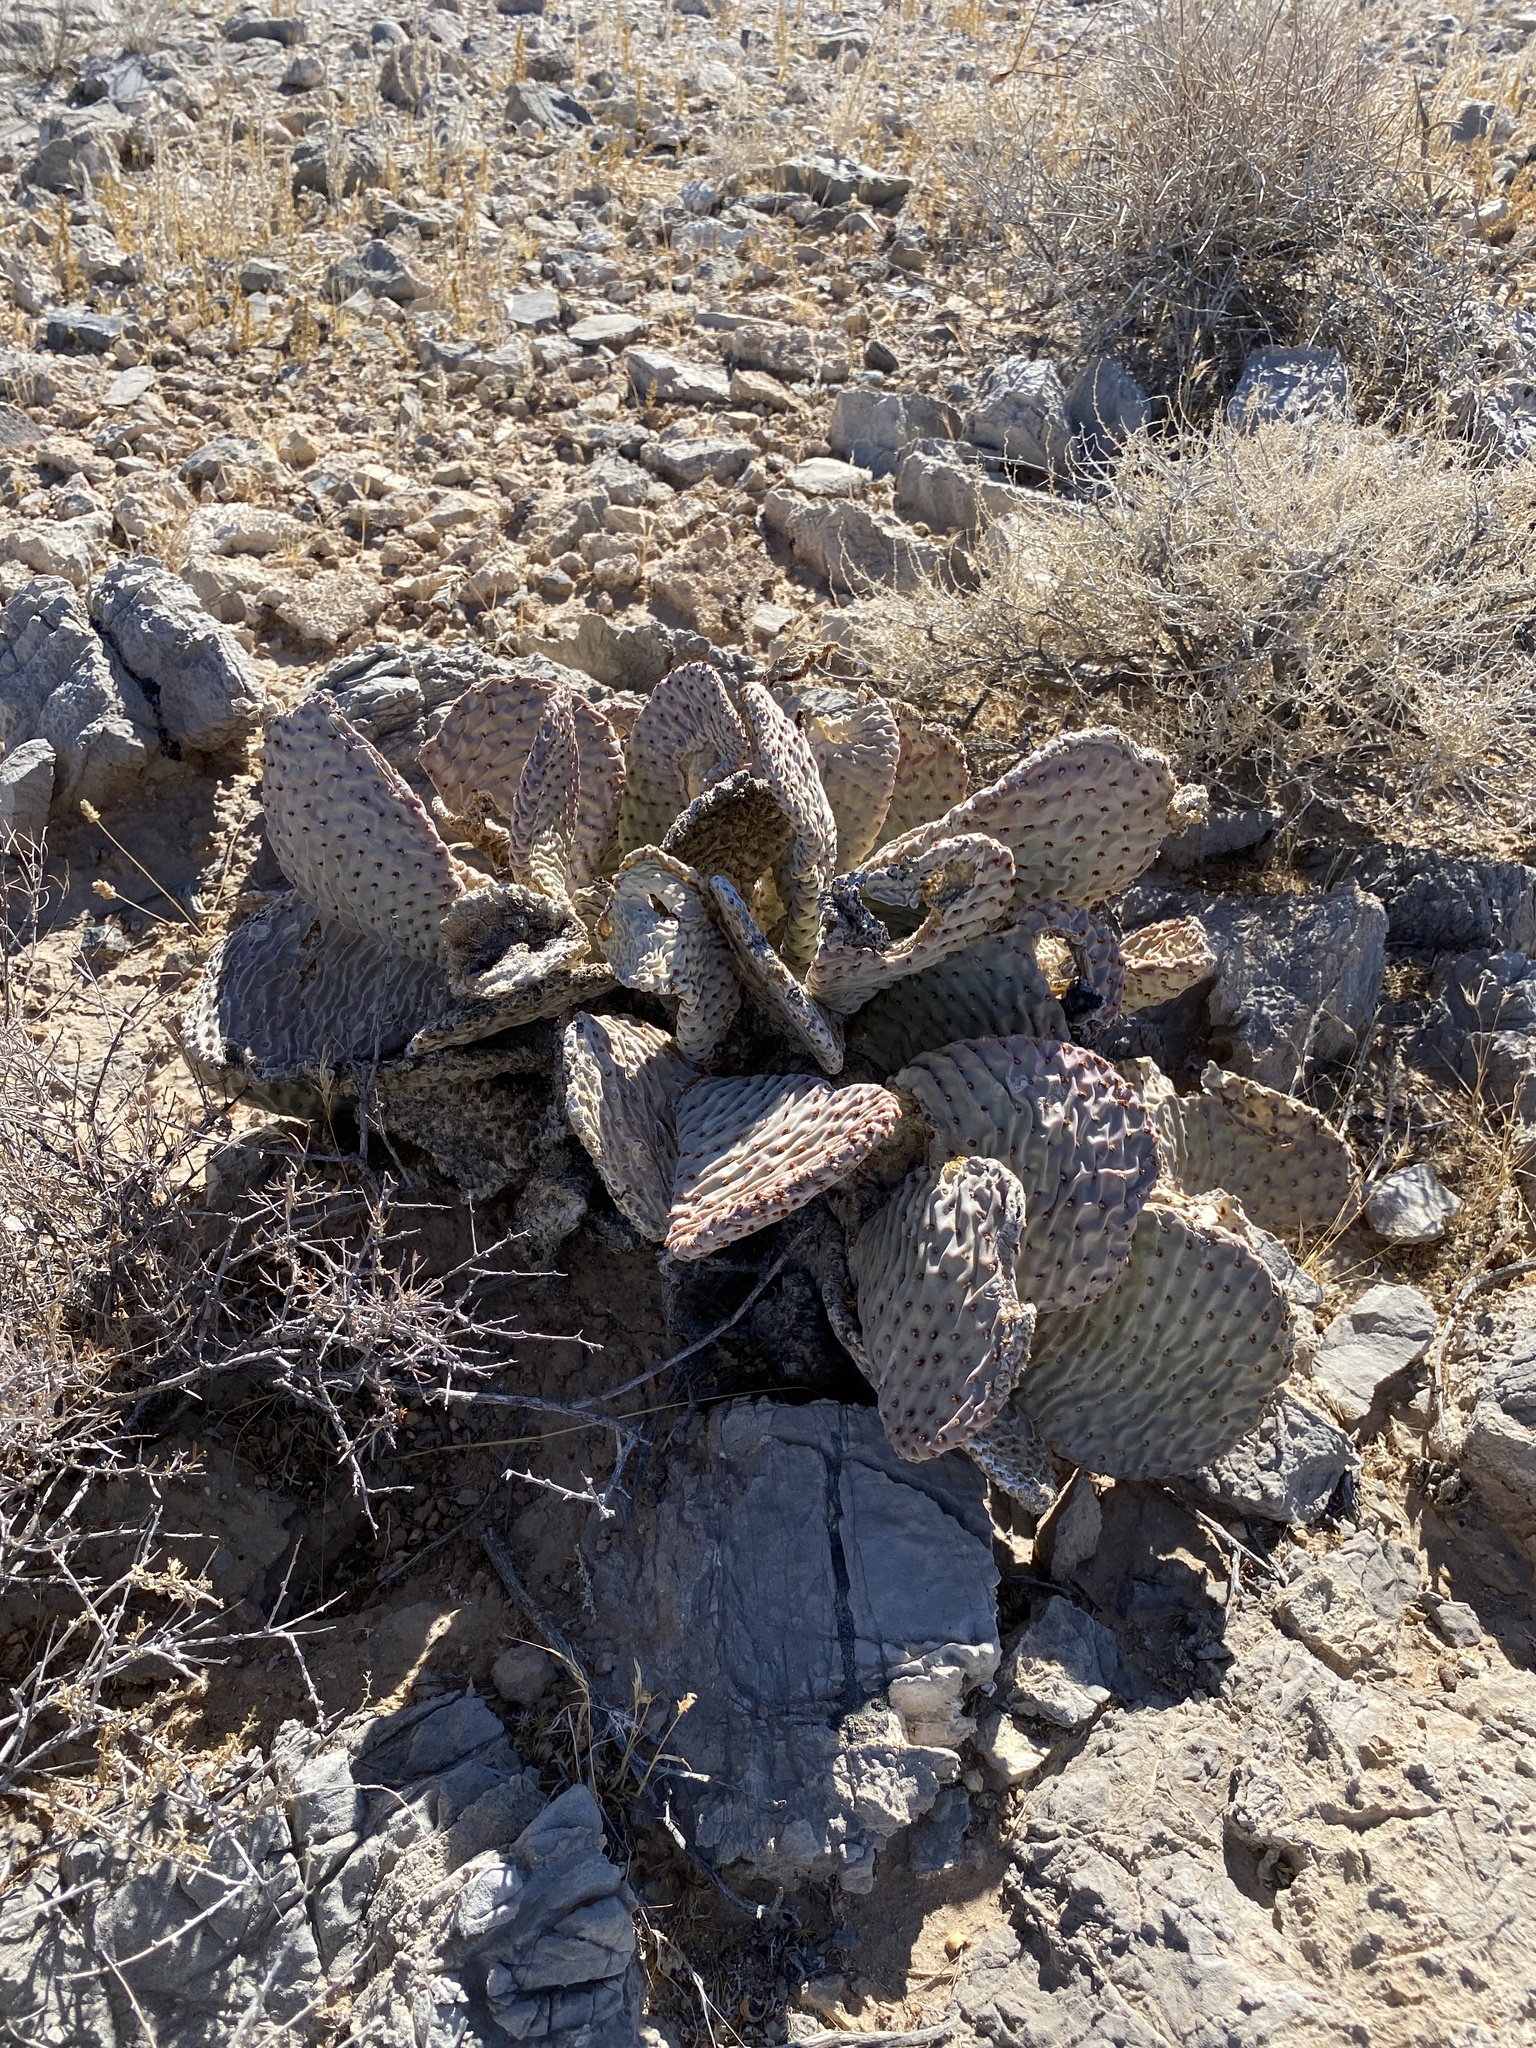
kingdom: Plantae
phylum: Tracheophyta
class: Magnoliopsida
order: Caryophyllales
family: Cactaceae
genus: Opuntia
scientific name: Opuntia basilaris
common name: Beavertail prickly-pear
